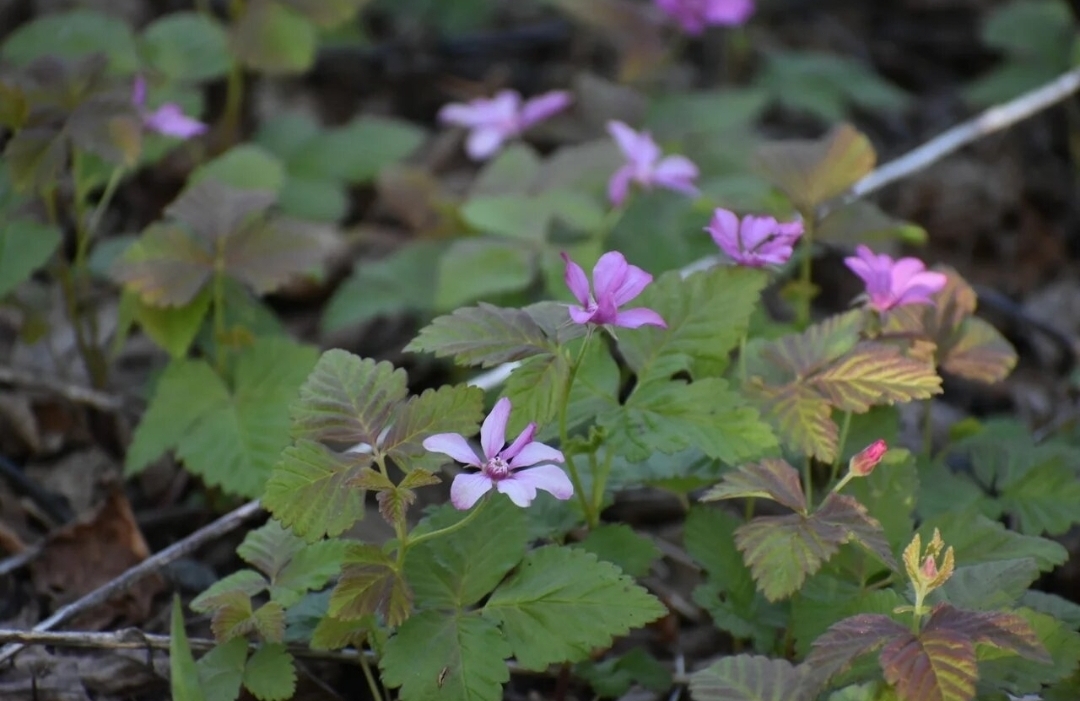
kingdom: Plantae
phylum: Tracheophyta
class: Magnoliopsida
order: Rosales
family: Rosaceae
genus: Rubus
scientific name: Rubus arcticus
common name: Arctic bramble
